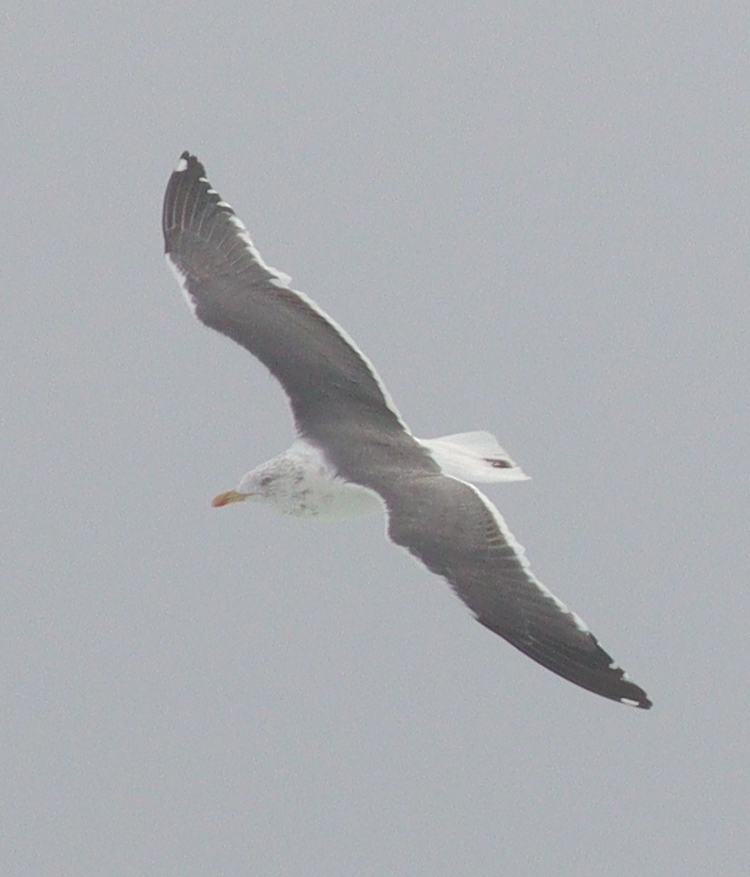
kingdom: Animalia
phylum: Chordata
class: Aves
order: Charadriiformes
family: Laridae
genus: Larus
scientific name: Larus fuscus
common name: Lesser black-backed gull
